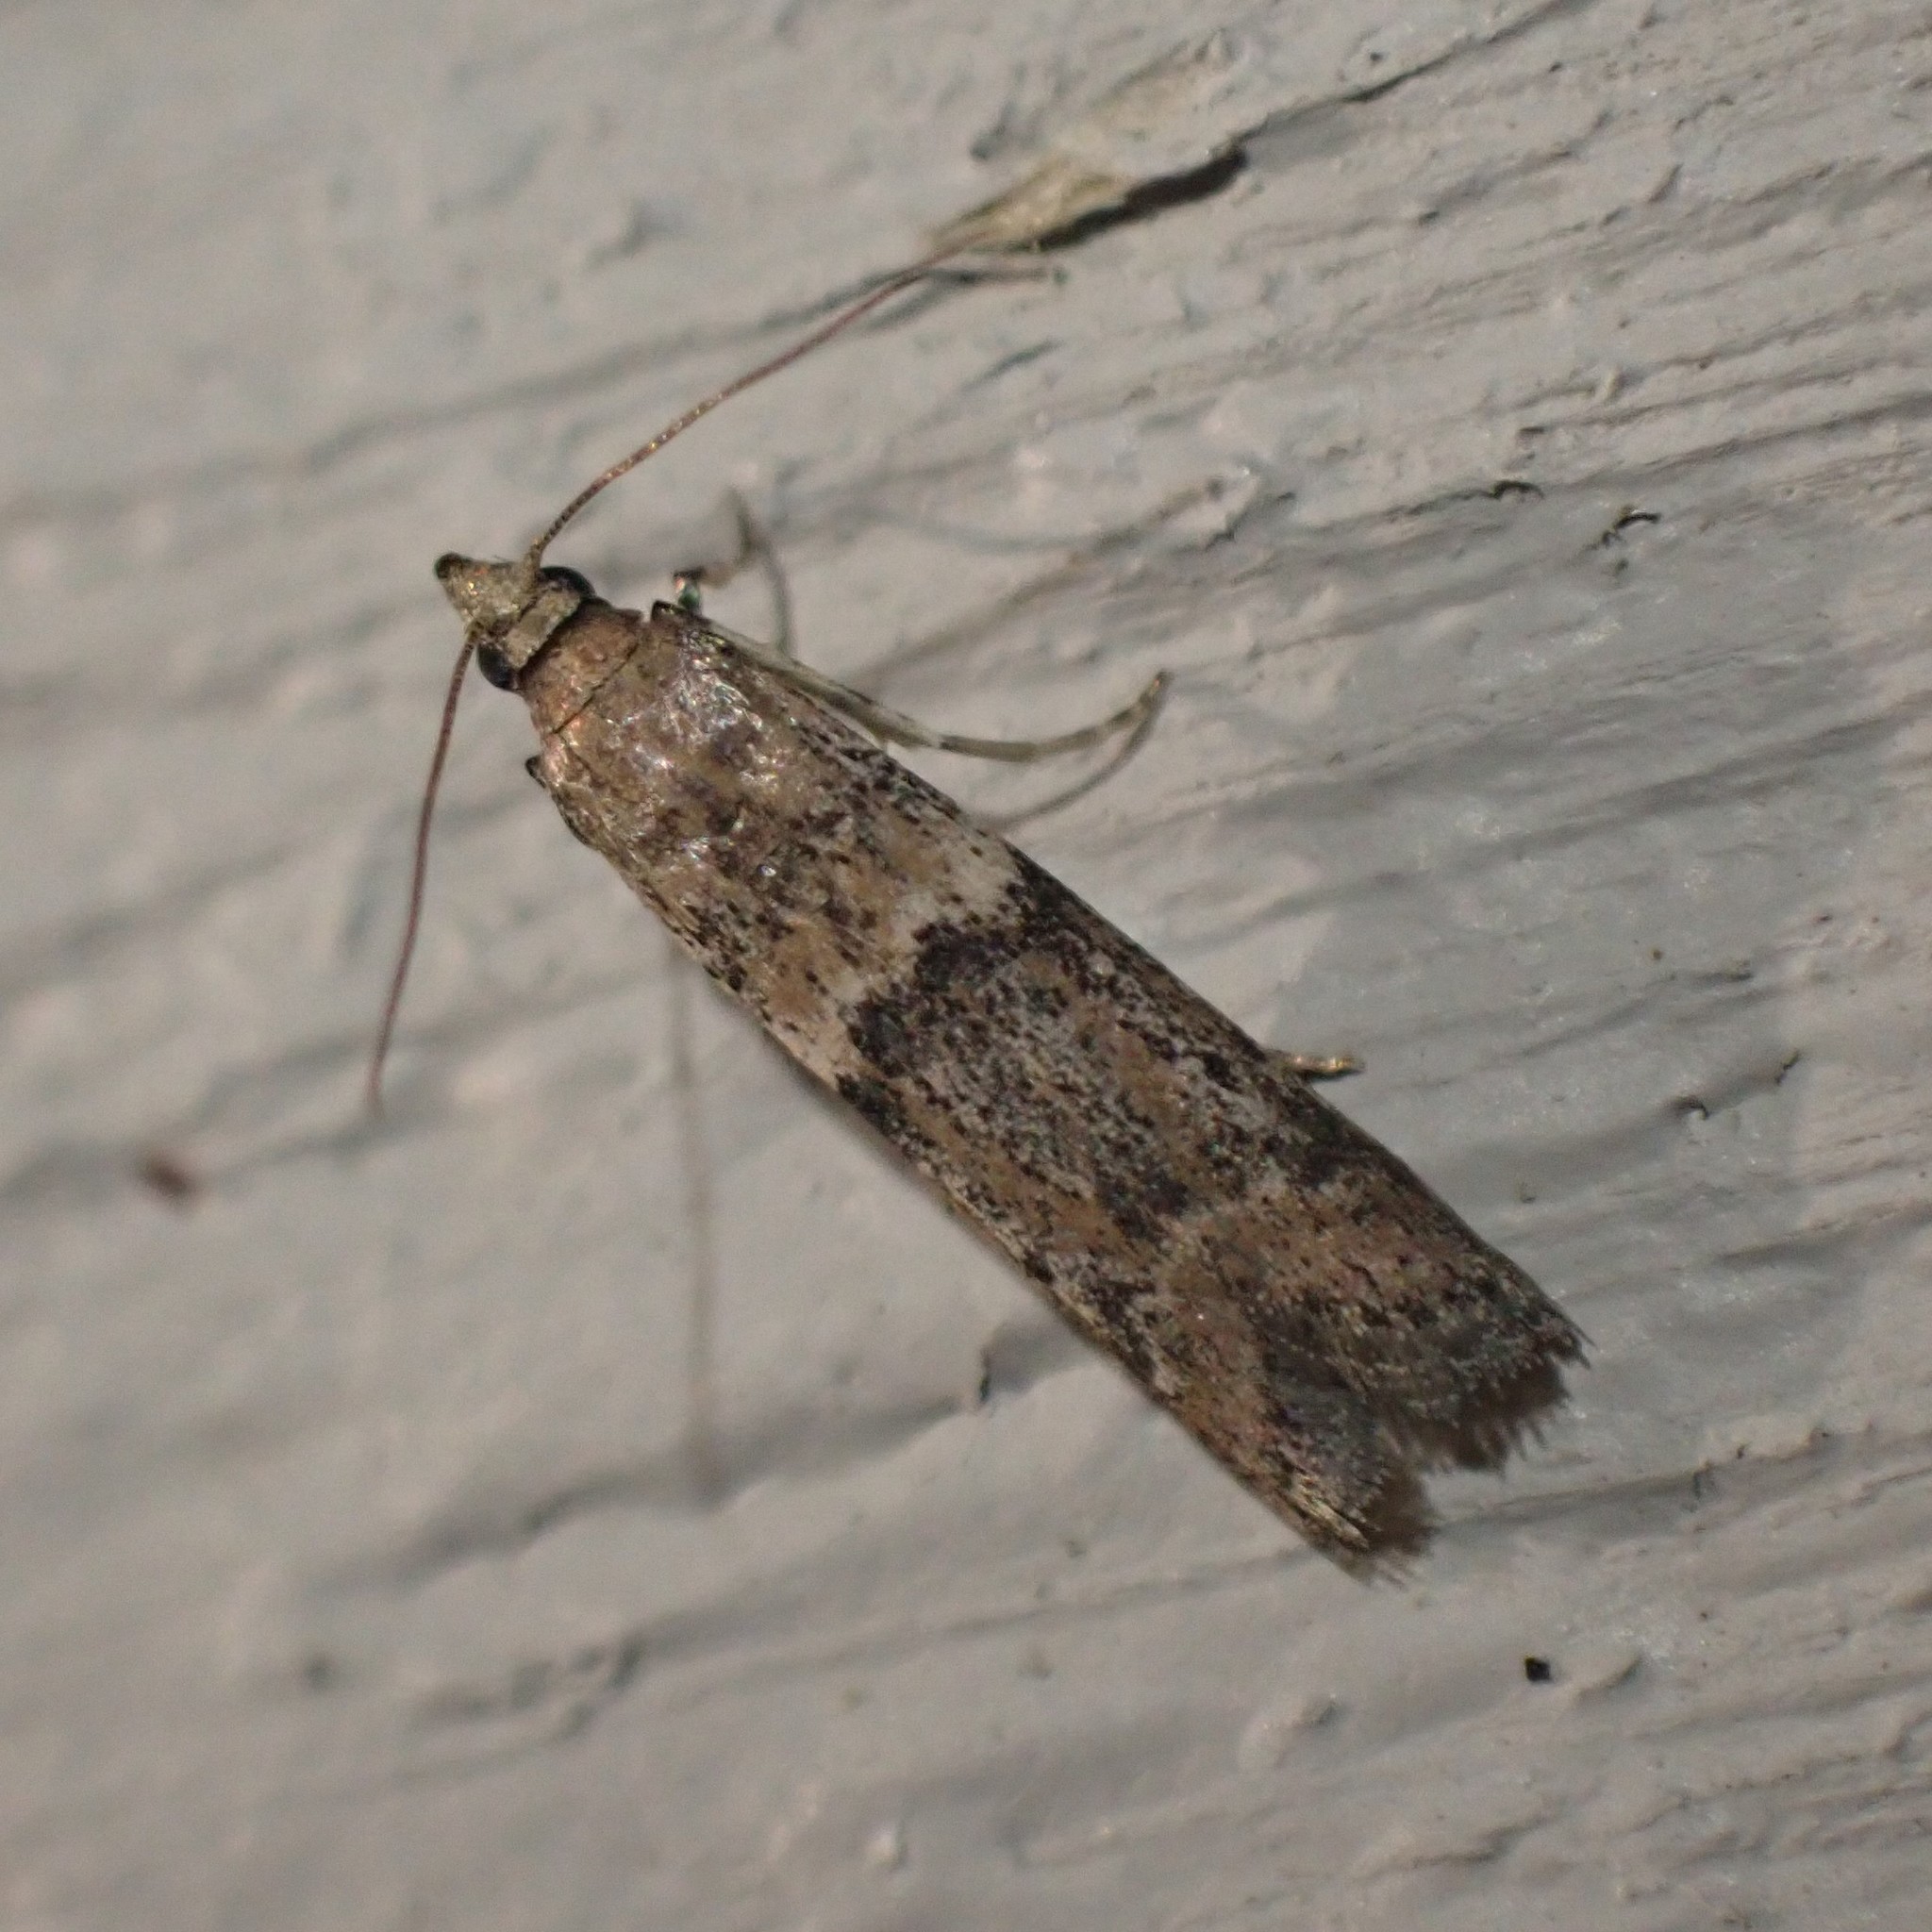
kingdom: Animalia
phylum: Arthropoda
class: Insecta
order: Lepidoptera
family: Pyralidae
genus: Ephestiodes
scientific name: Ephestiodes gilvescentella
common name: Moth
